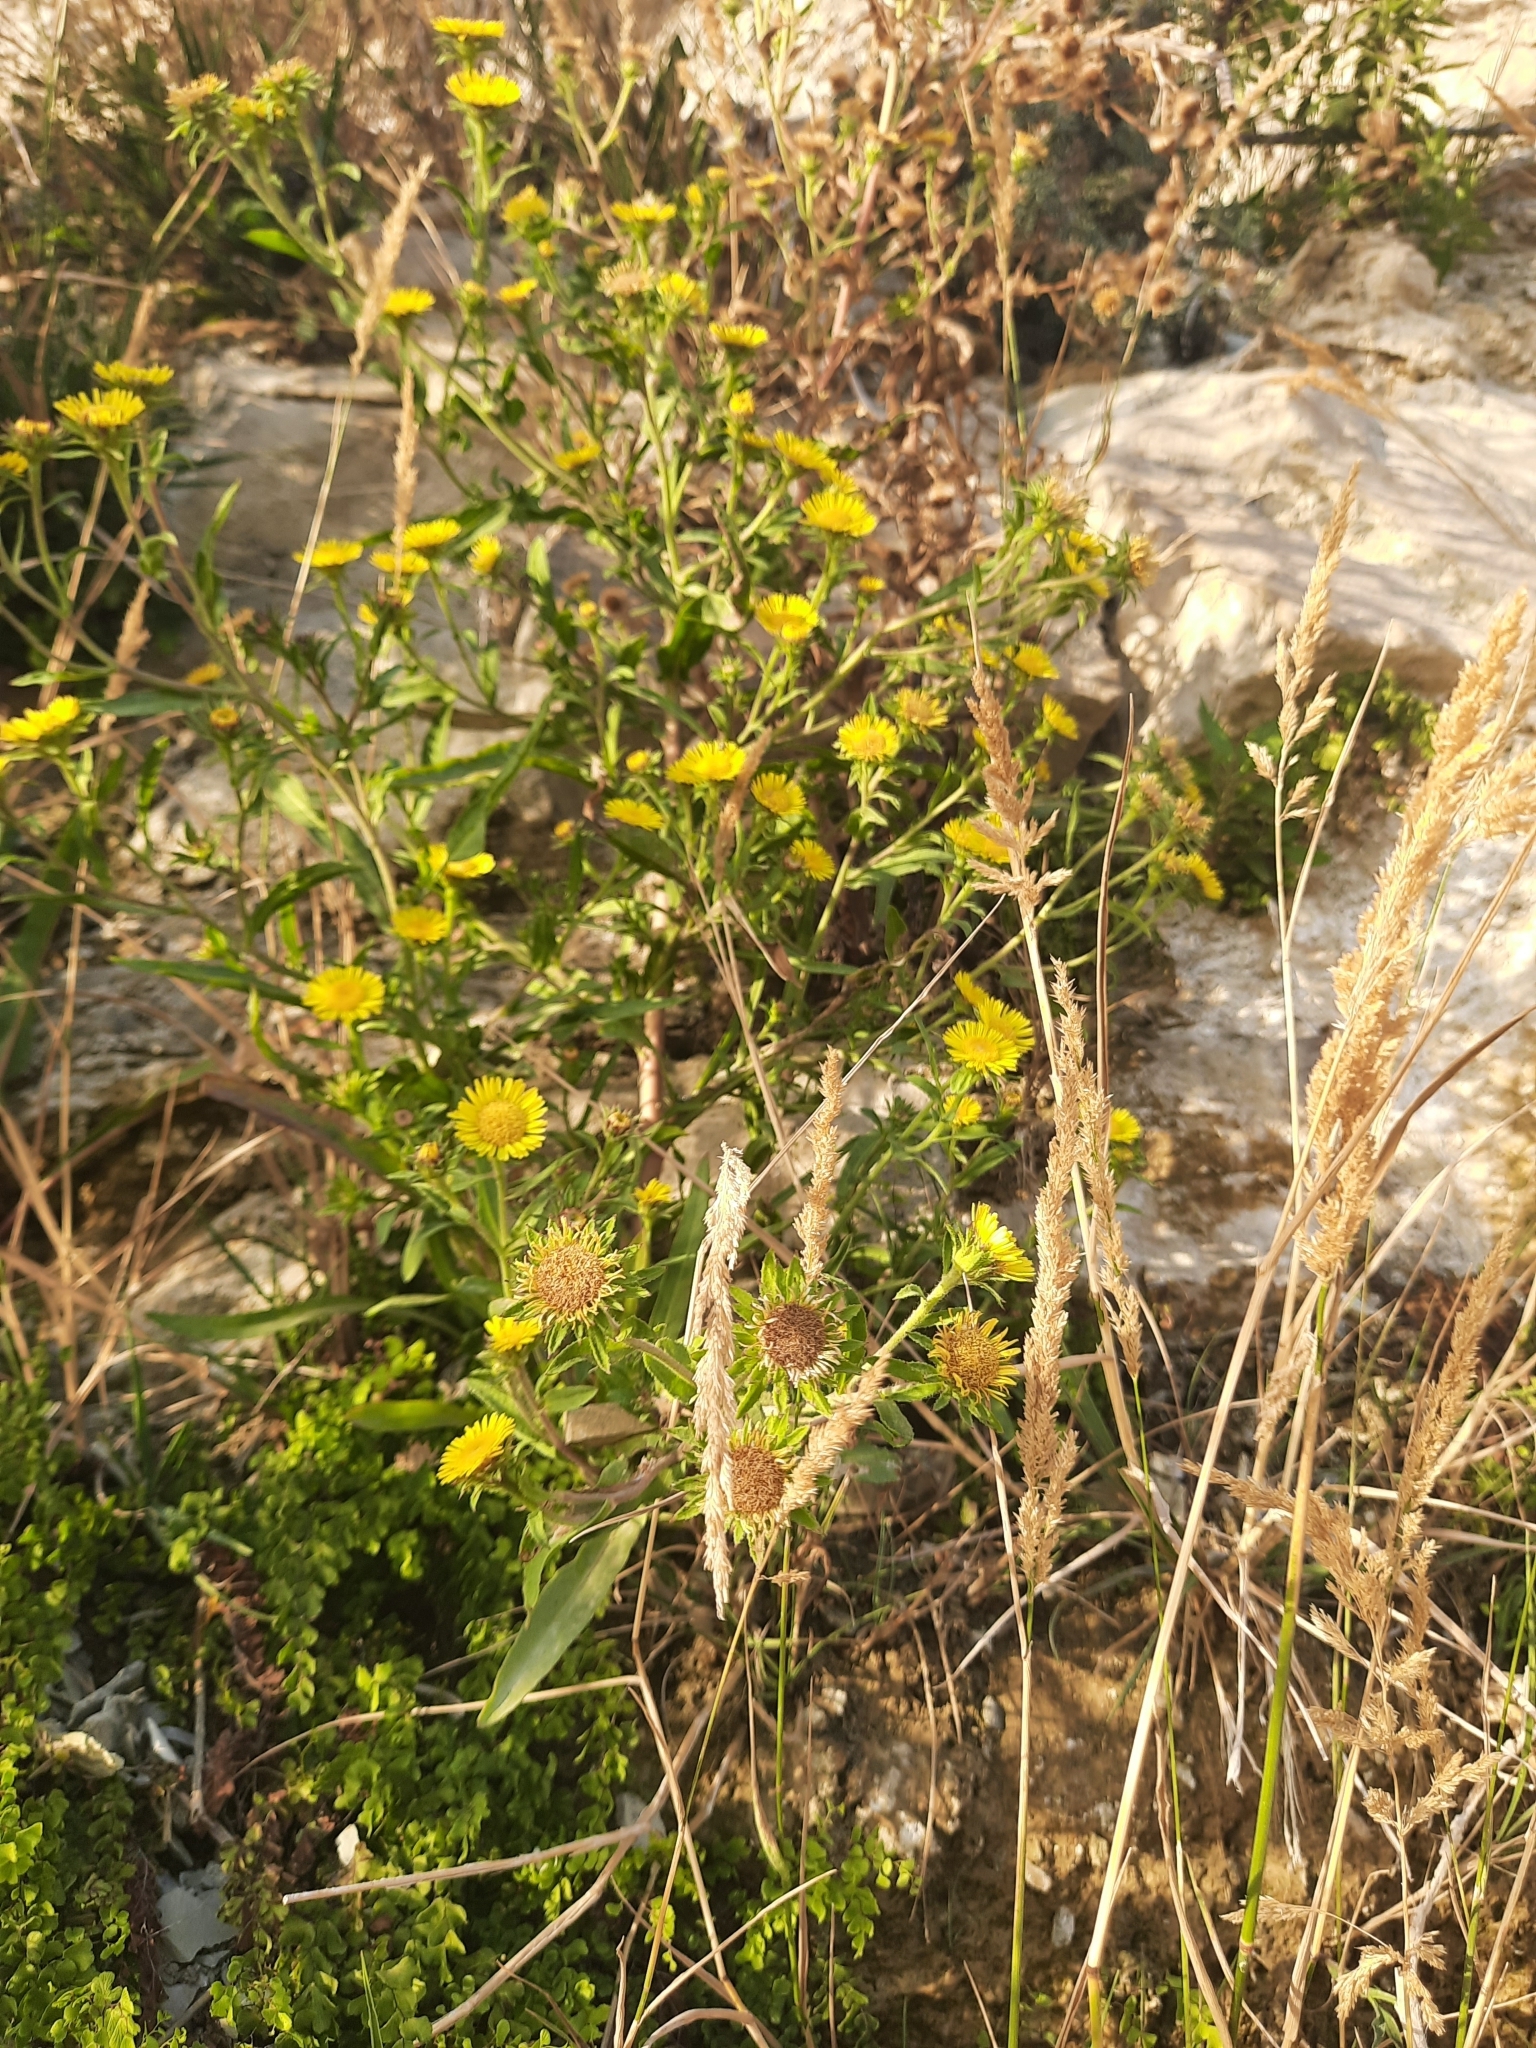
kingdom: Plantae
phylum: Tracheophyta
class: Magnoliopsida
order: Asterales
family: Asteraceae
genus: Pentanema
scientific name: Pentanema caspicum
